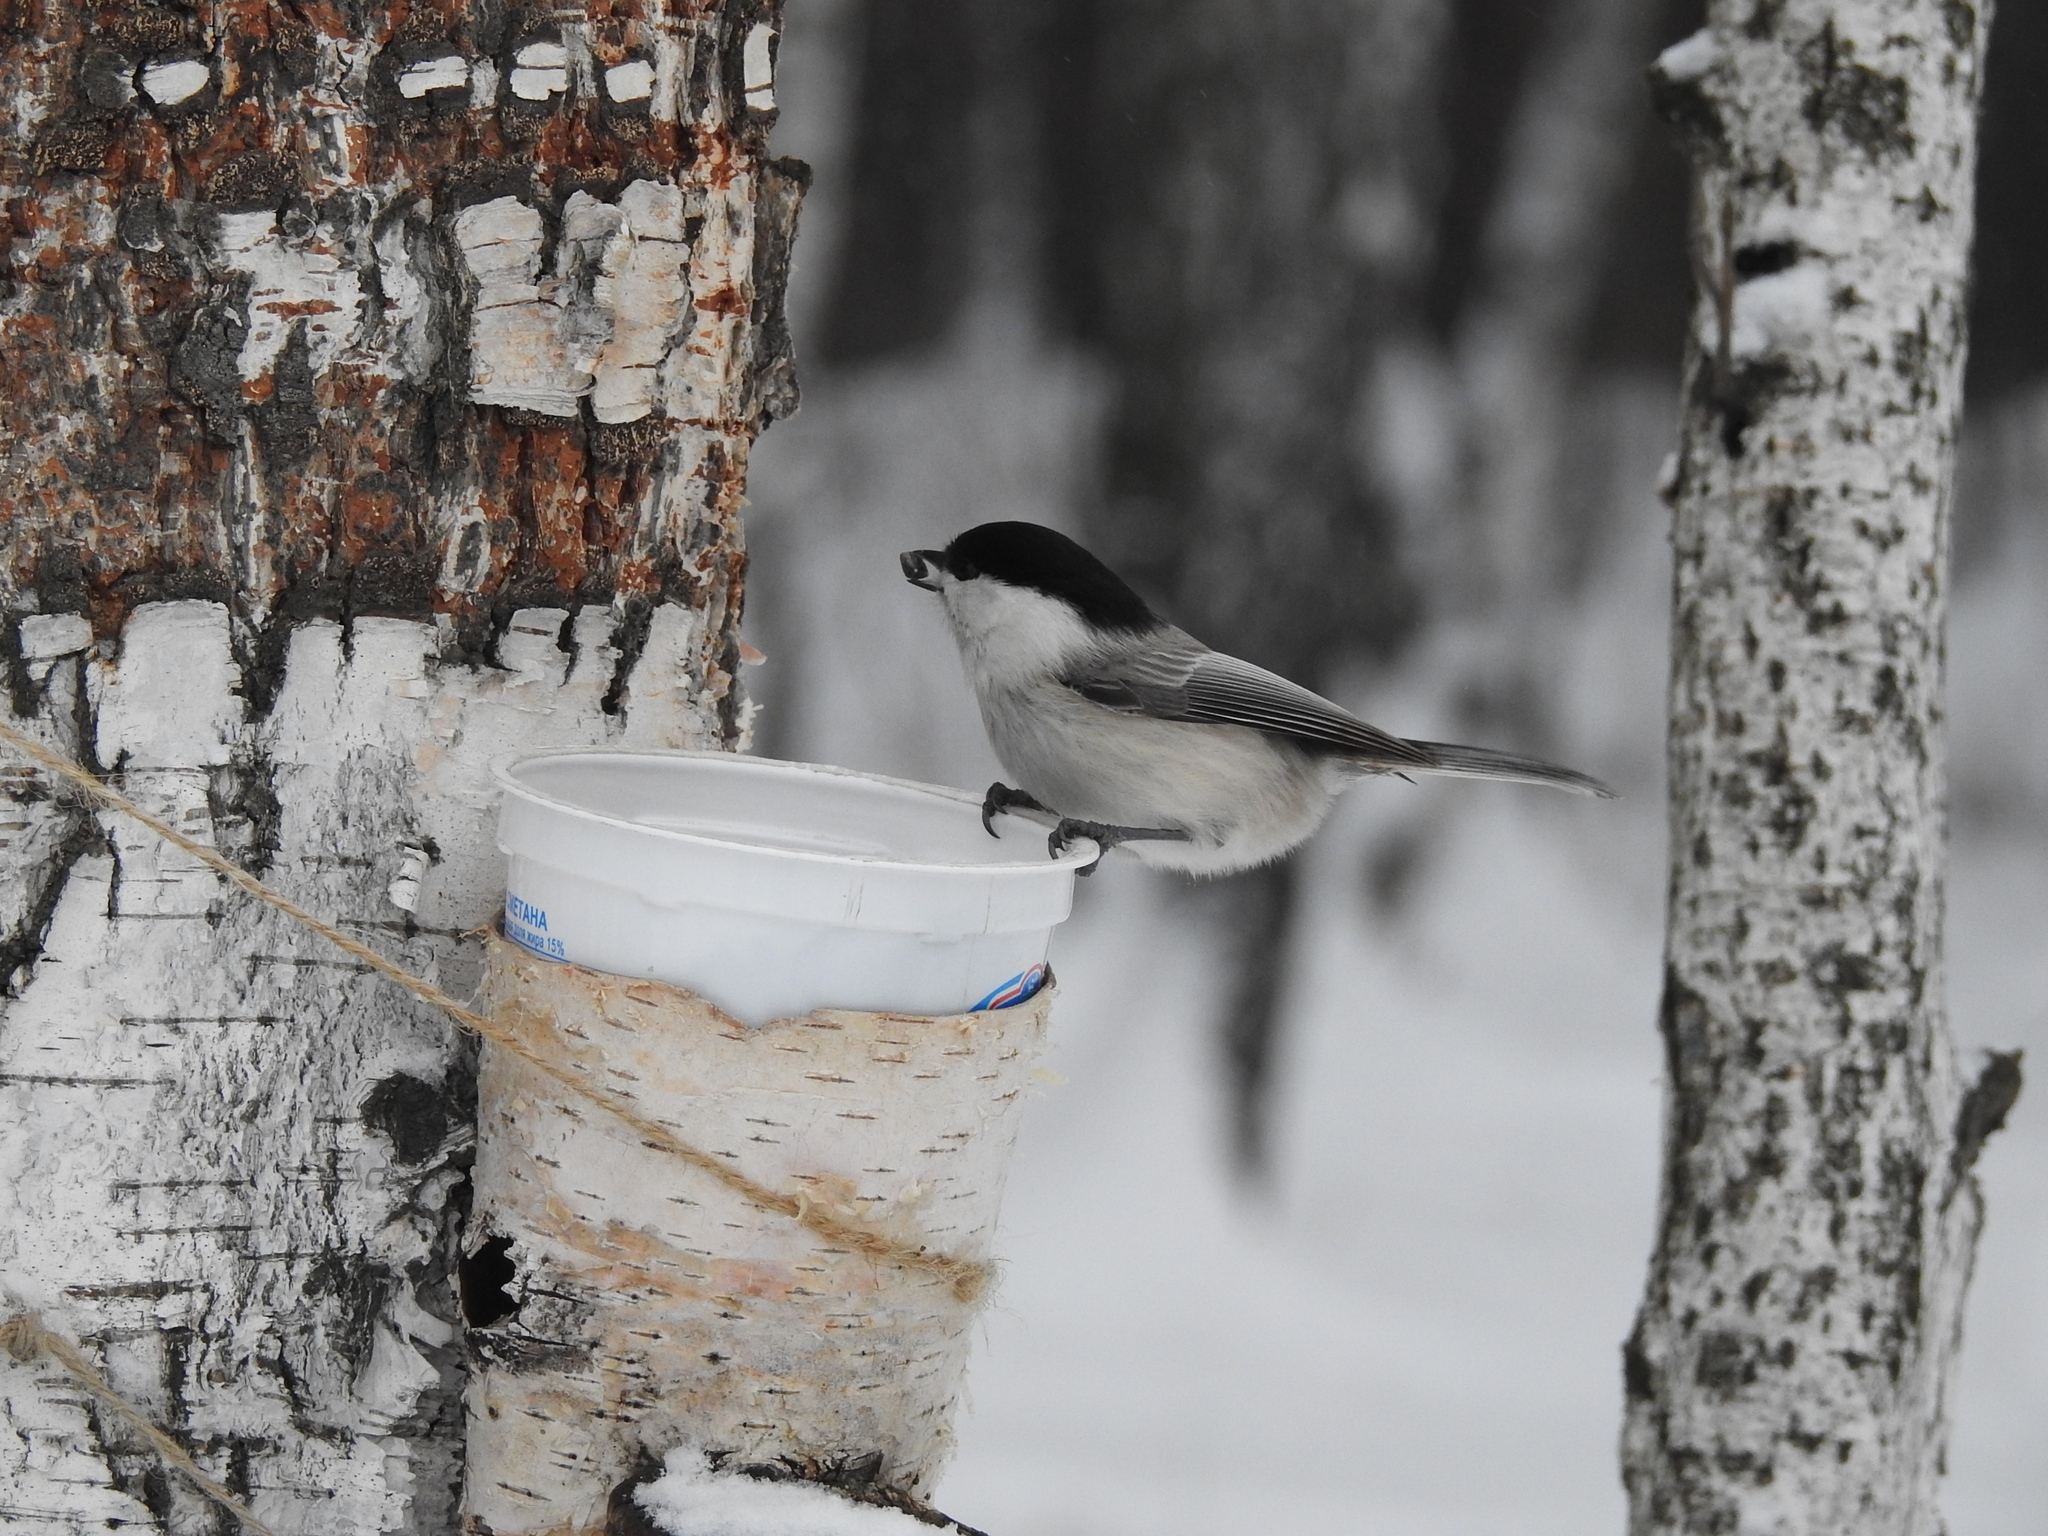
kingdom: Animalia
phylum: Chordata
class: Aves
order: Passeriformes
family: Paridae
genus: Poecile
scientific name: Poecile montanus
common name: Willow tit
